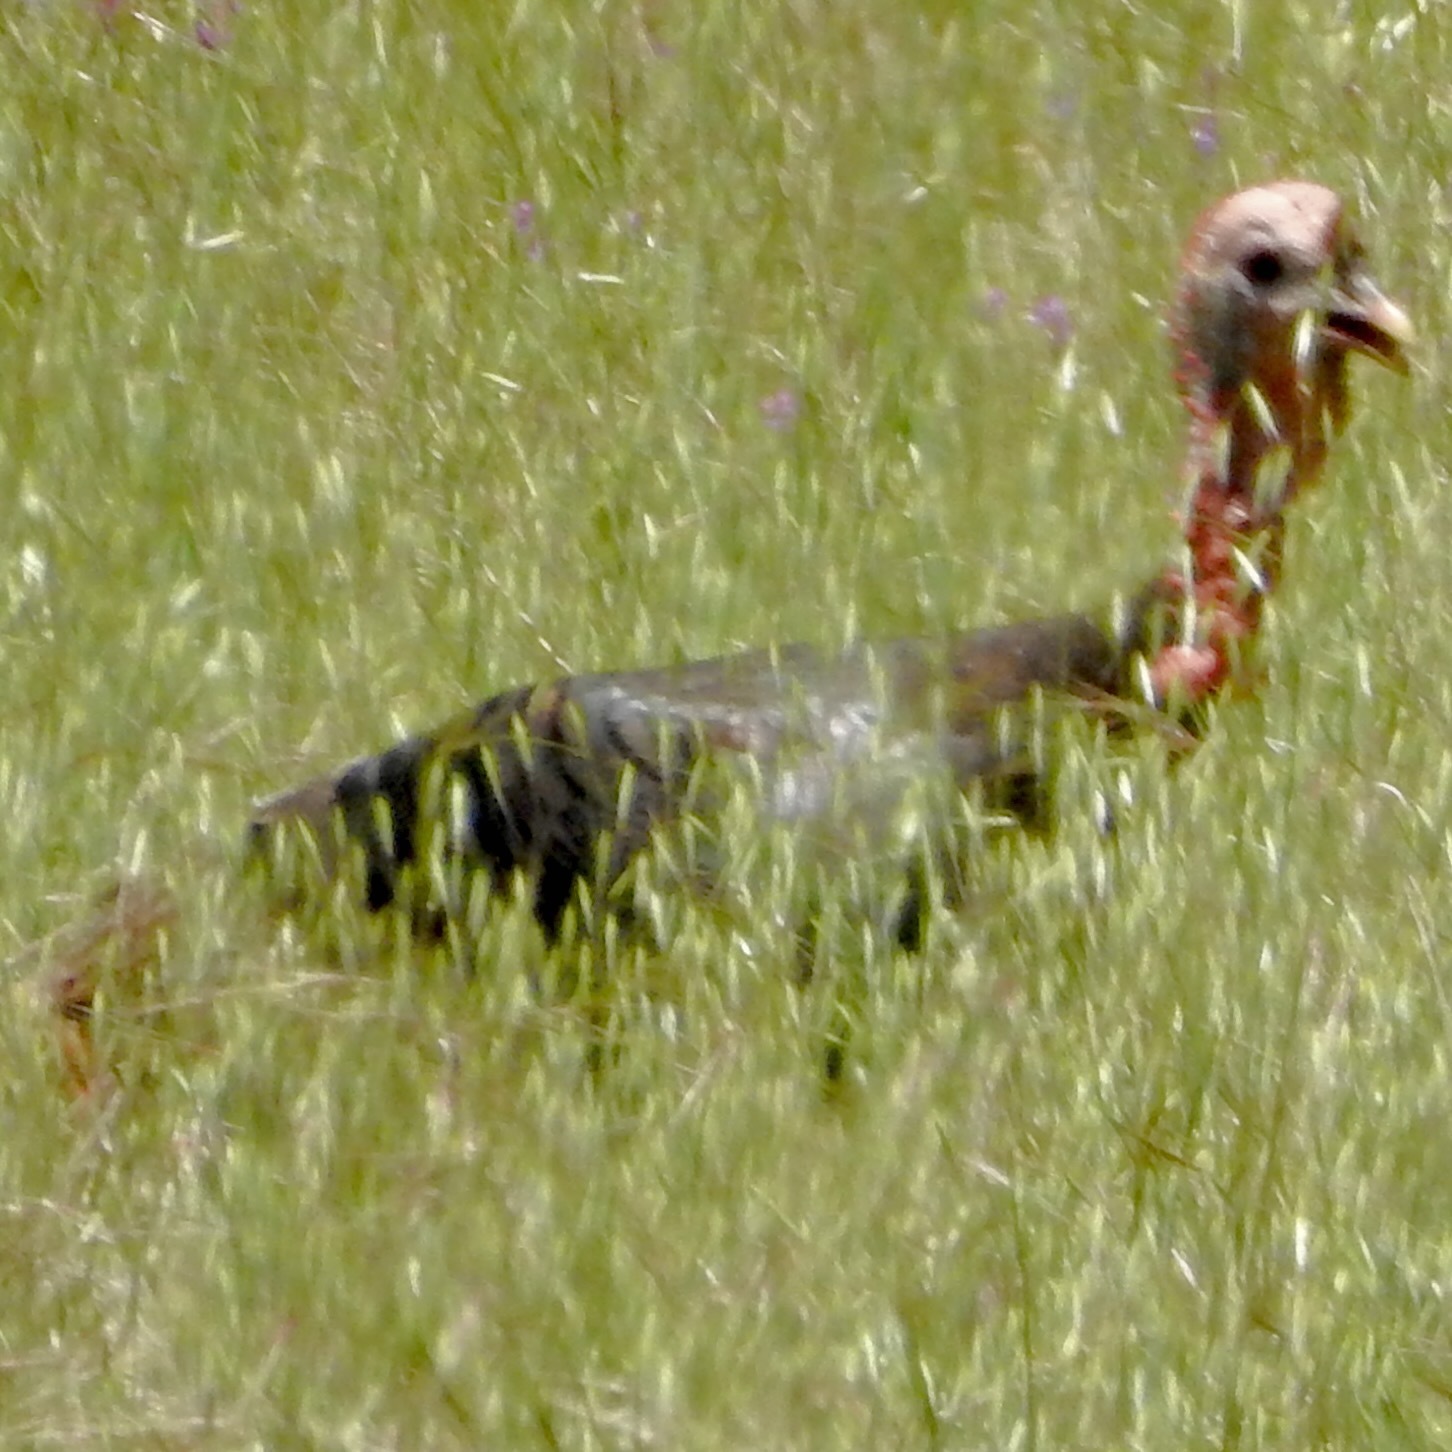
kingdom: Animalia
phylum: Chordata
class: Aves
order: Galliformes
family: Phasianidae
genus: Meleagris
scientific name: Meleagris gallopavo
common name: Wild turkey
